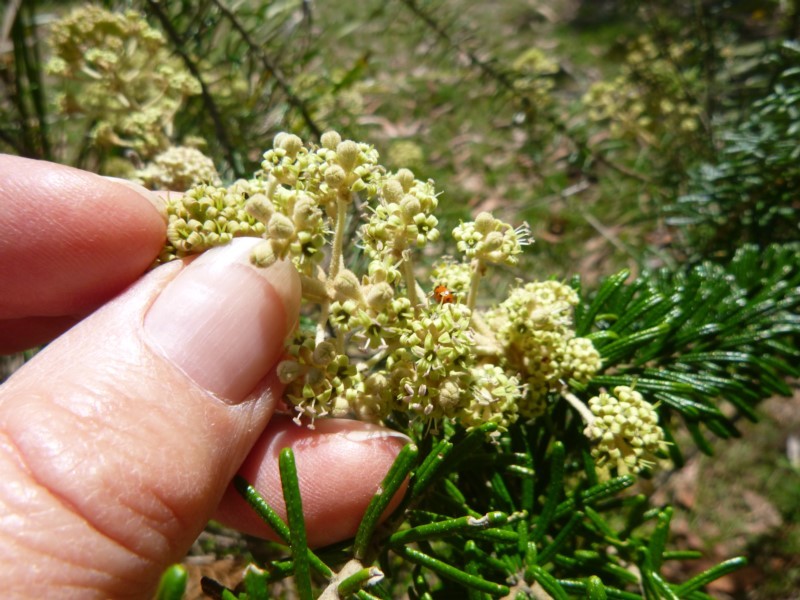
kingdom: Animalia
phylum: Arthropoda
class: Insecta
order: Coleoptera
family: Coccinellidae
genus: Hippodamia
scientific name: Hippodamia variegata
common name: Ladybird beetle
